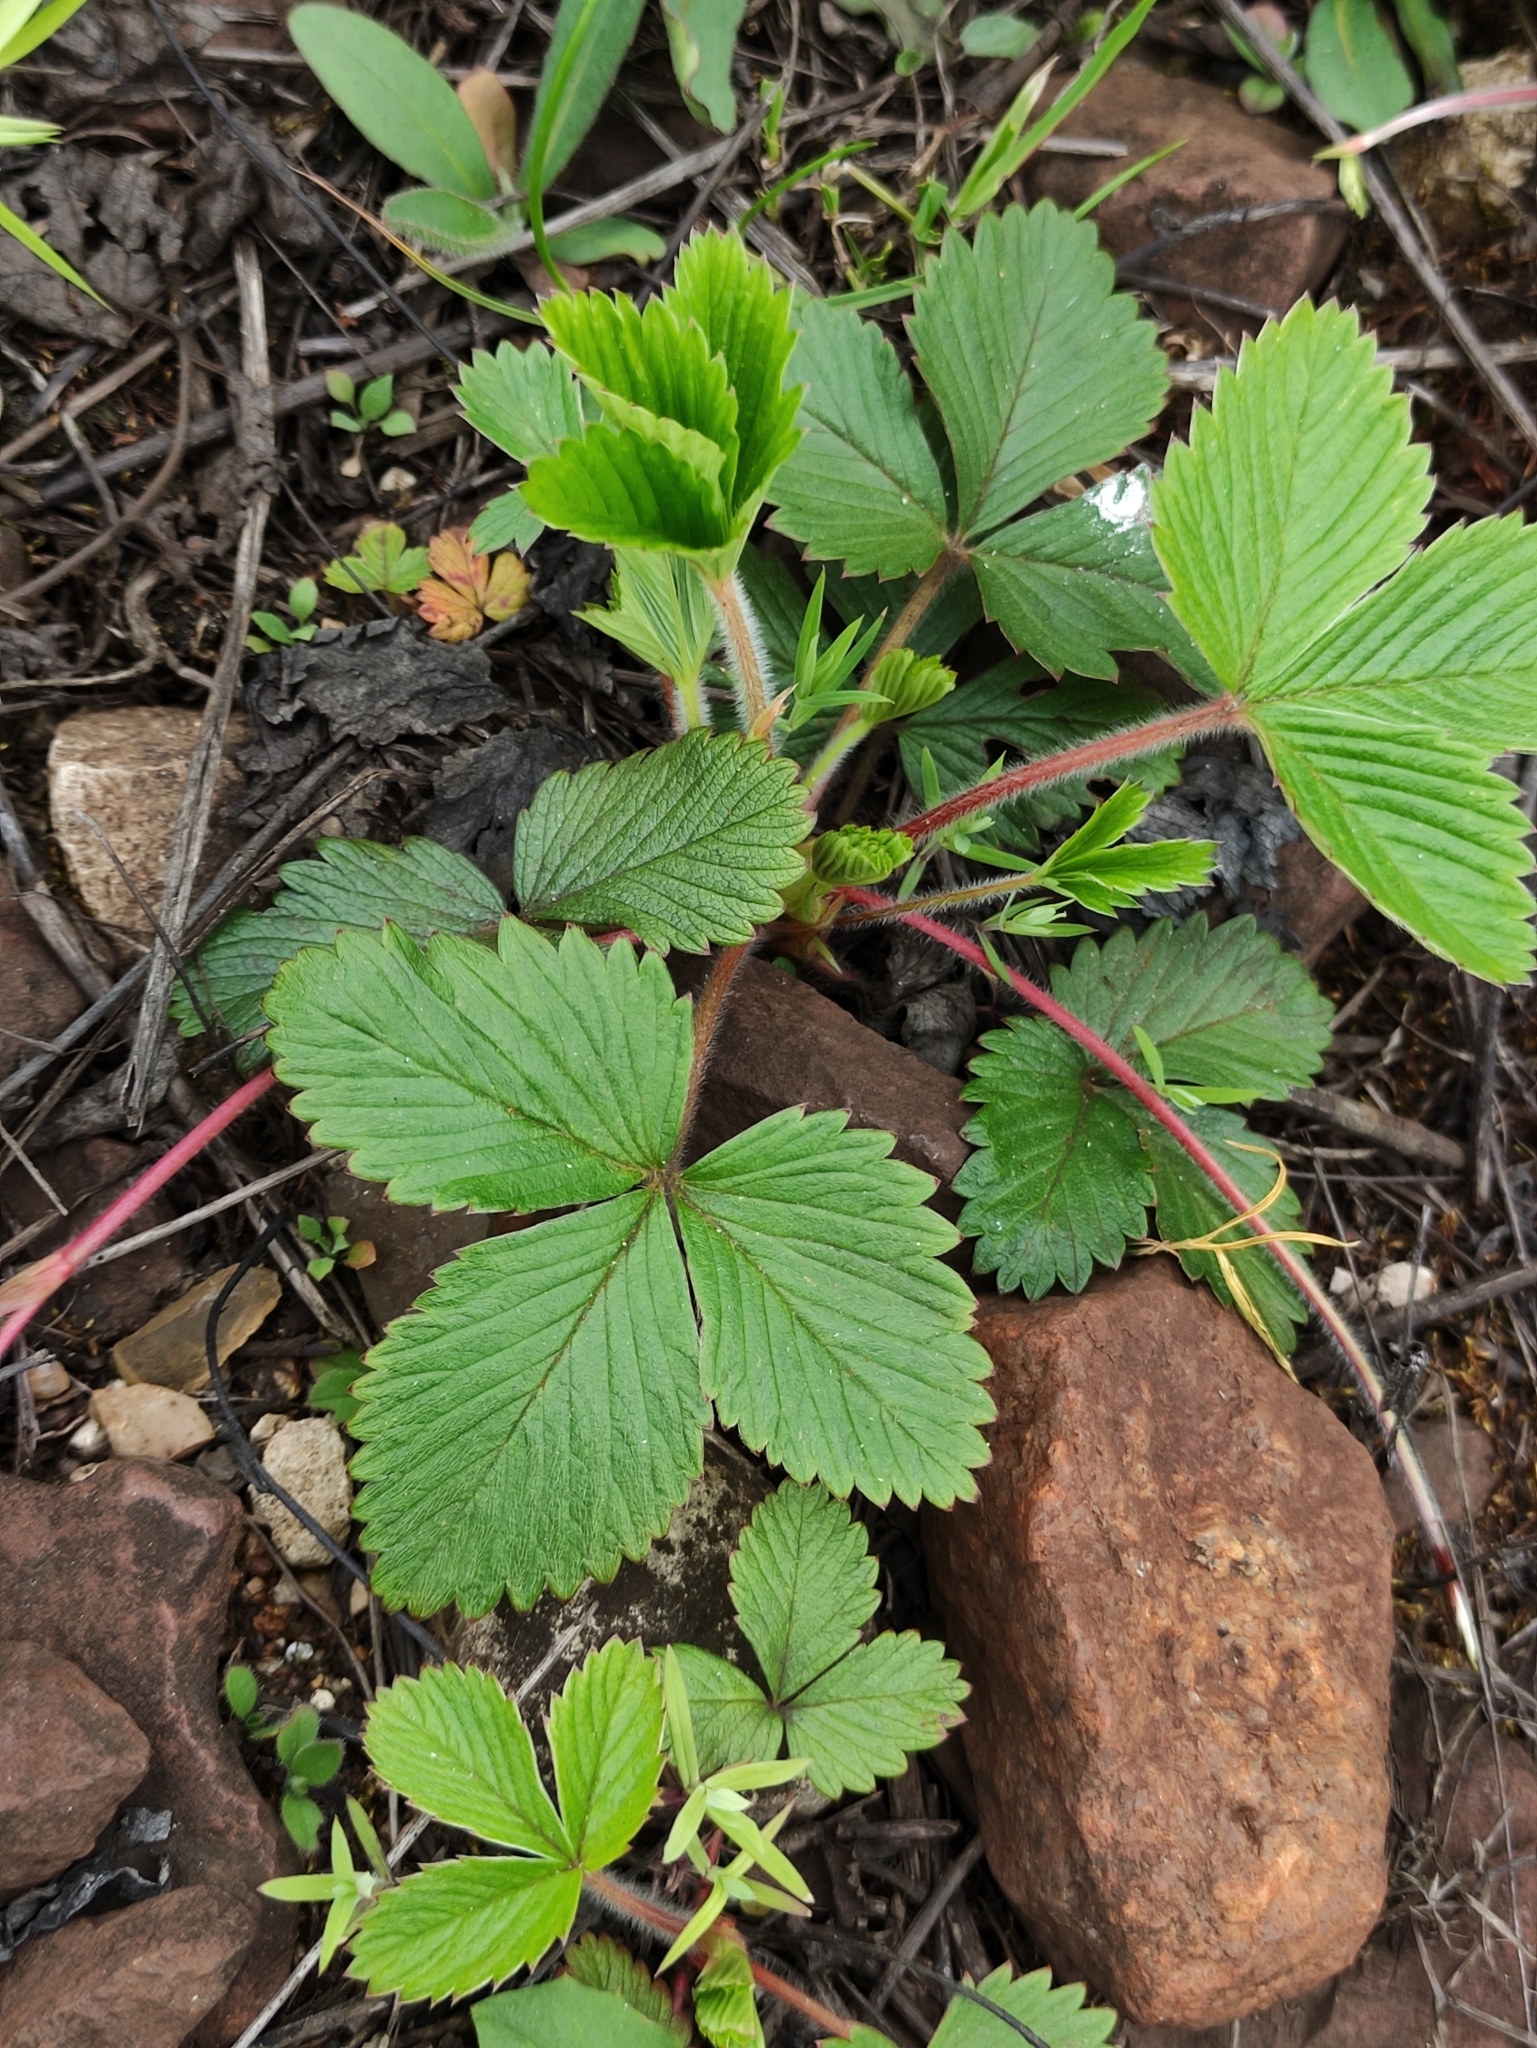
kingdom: Plantae
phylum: Tracheophyta
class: Magnoliopsida
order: Rosales
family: Rosaceae
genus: Fragaria
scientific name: Fragaria vesca
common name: Wild strawberry
